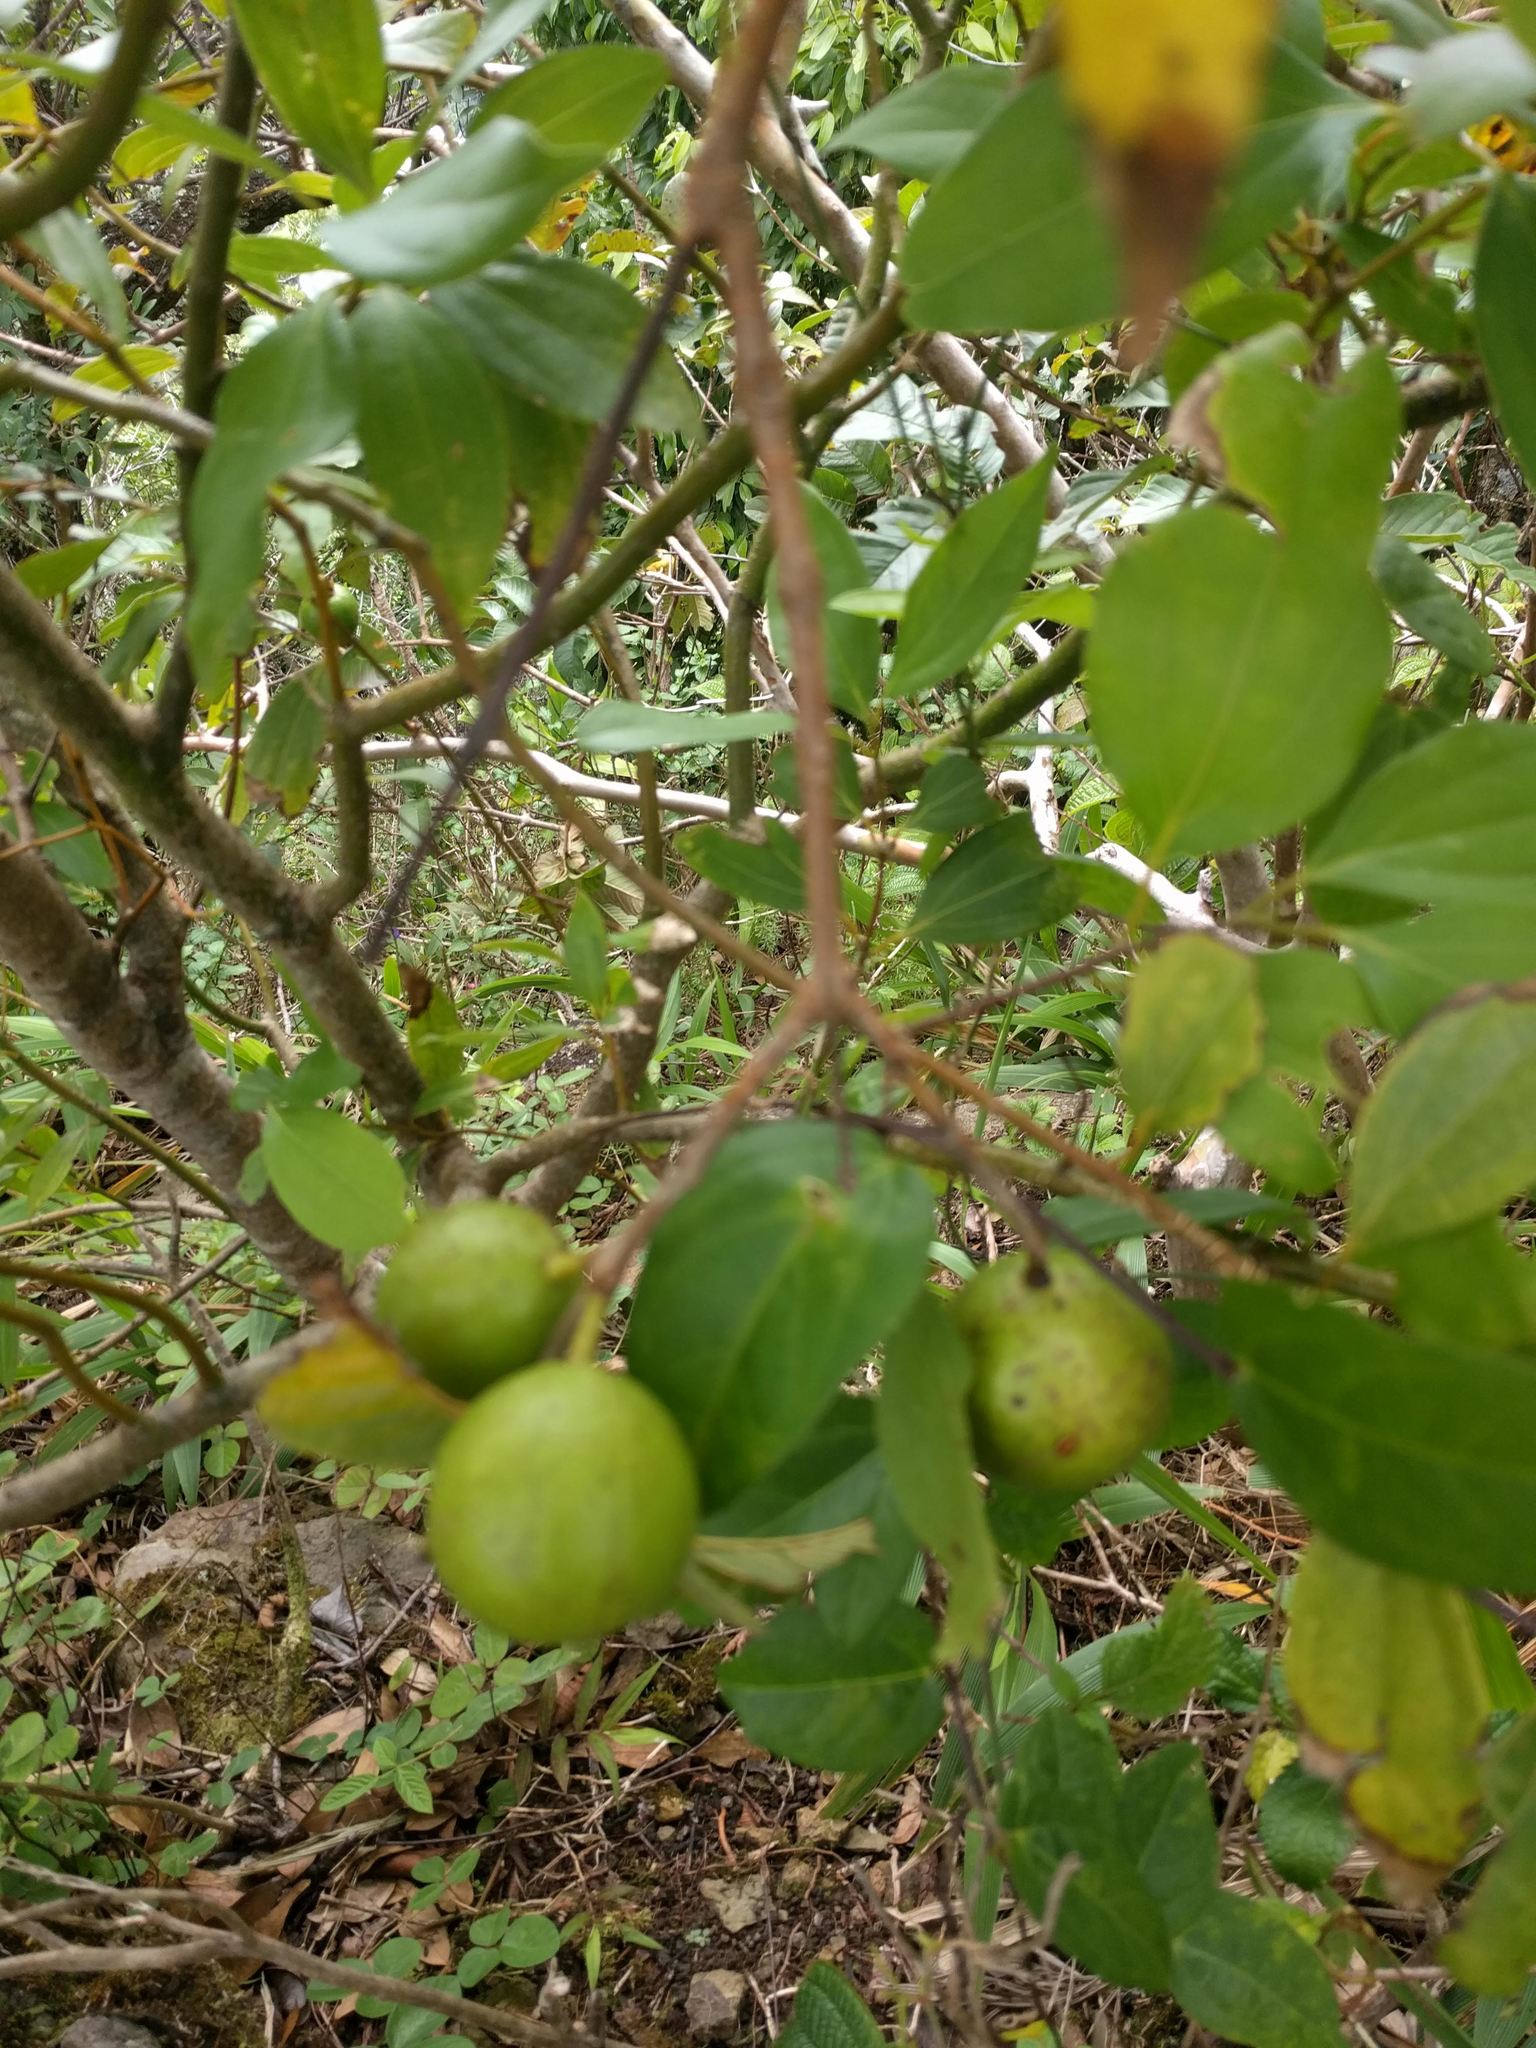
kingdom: Plantae
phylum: Tracheophyta
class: Magnoliopsida
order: Myrtales
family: Myrtaceae
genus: Psidium
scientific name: Psidium cattleianum
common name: Strawberry guava
